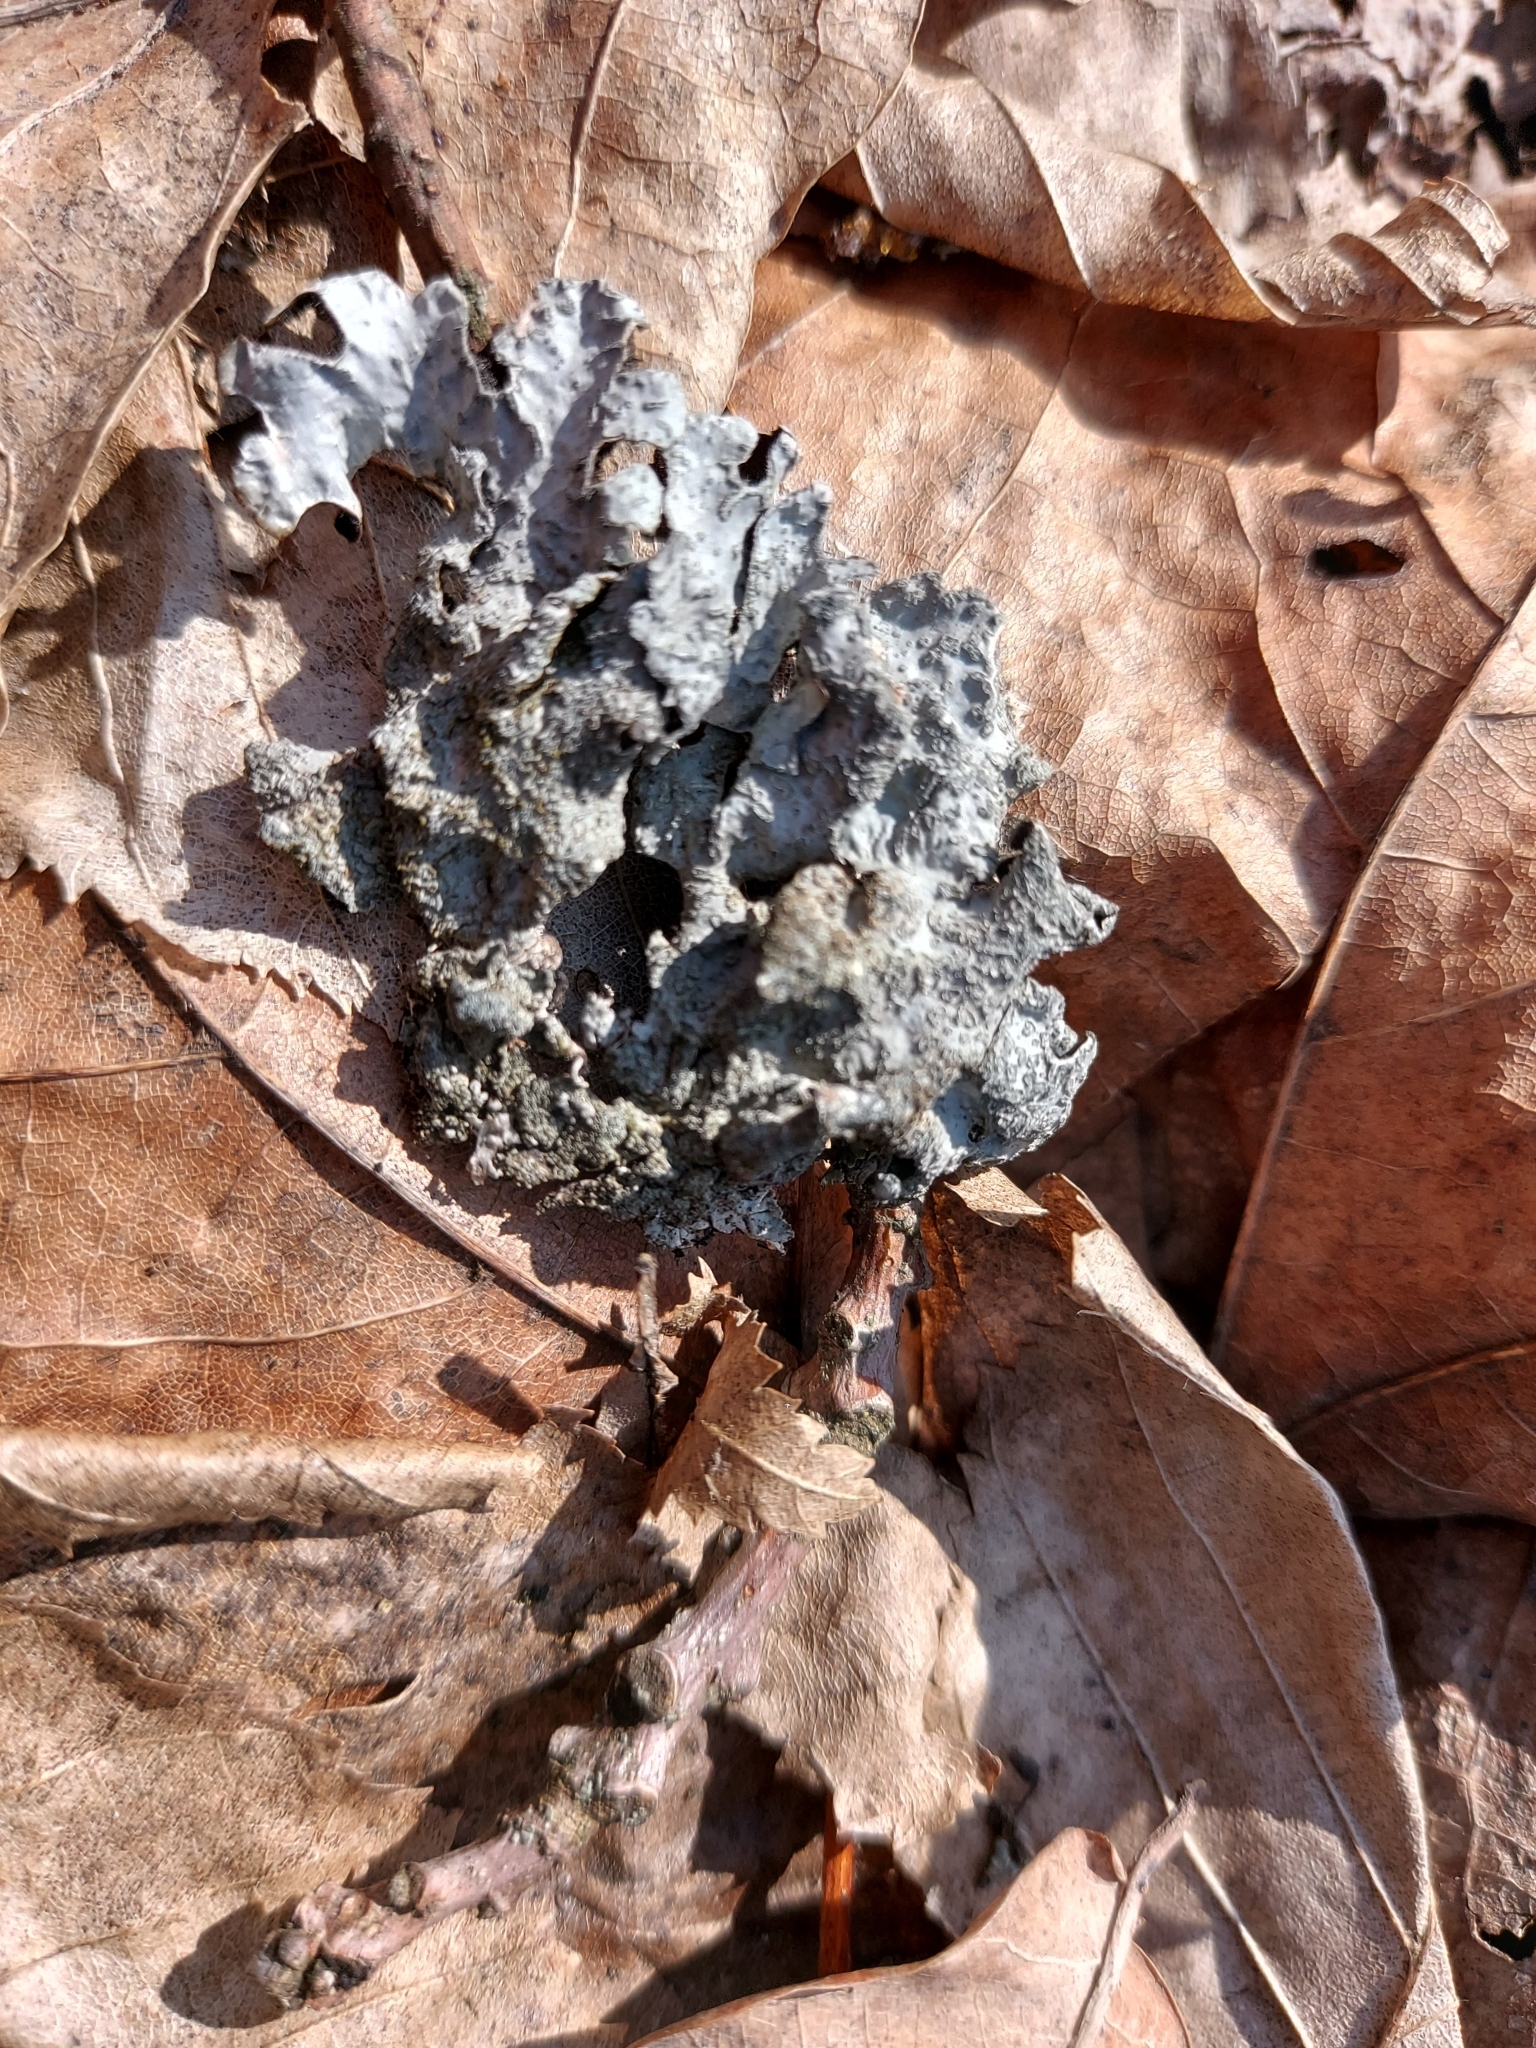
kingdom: Fungi
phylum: Ascomycota
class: Lecanoromycetes
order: Lecanorales
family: Parmeliaceae
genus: Parmelia
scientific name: Parmelia sulcata
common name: Netted shield lichen
